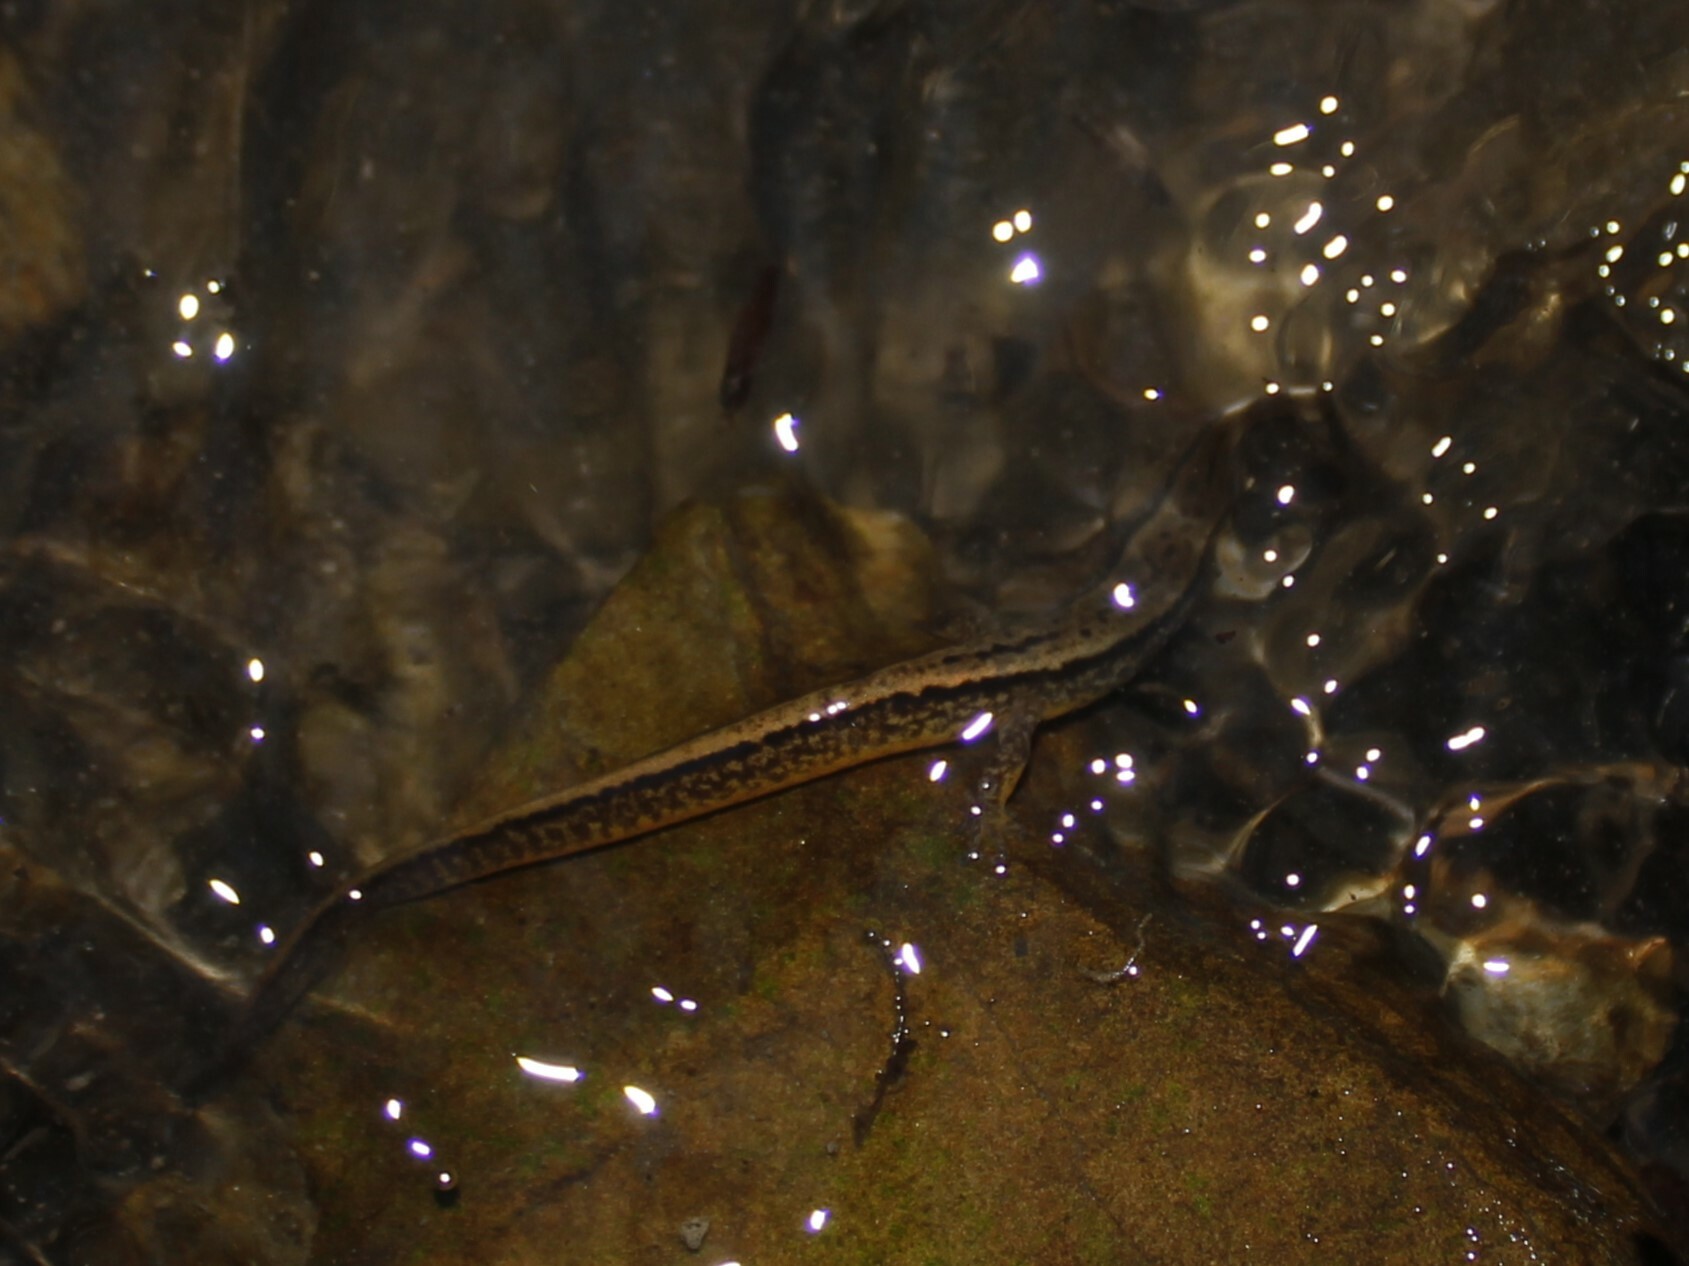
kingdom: Animalia
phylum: Chordata
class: Amphibia
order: Caudata
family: Plethodontidae
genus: Eurycea
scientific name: Eurycea bislineata
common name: Northern two-lined salamander
